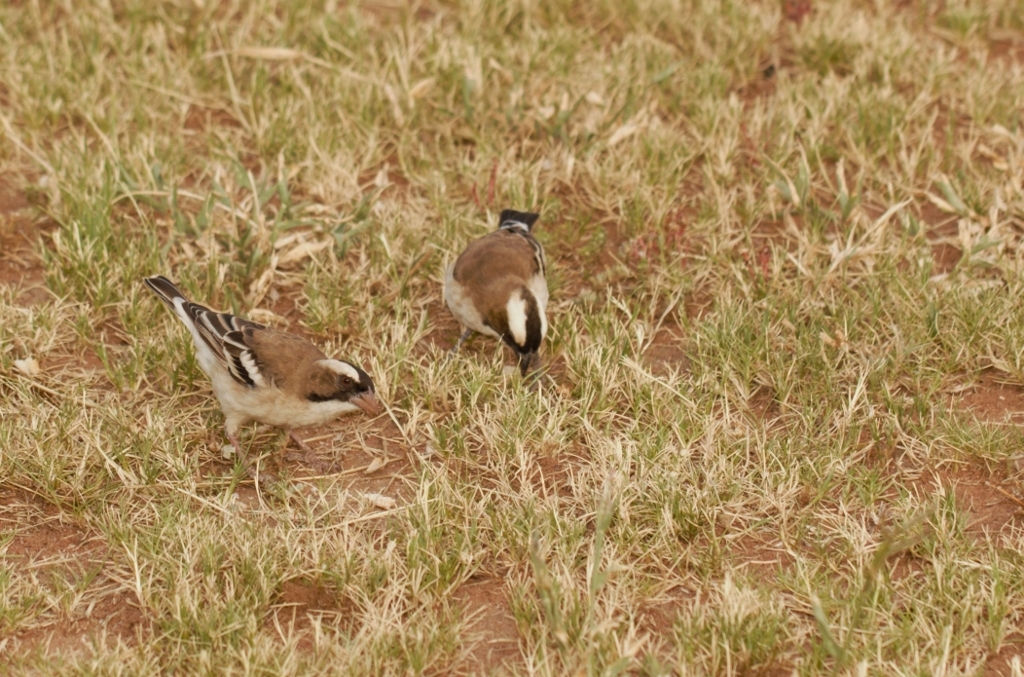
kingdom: Animalia
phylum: Chordata
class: Aves
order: Passeriformes
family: Passeridae
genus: Plocepasser
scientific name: Plocepasser mahali
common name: White-browed sparrow-weaver
